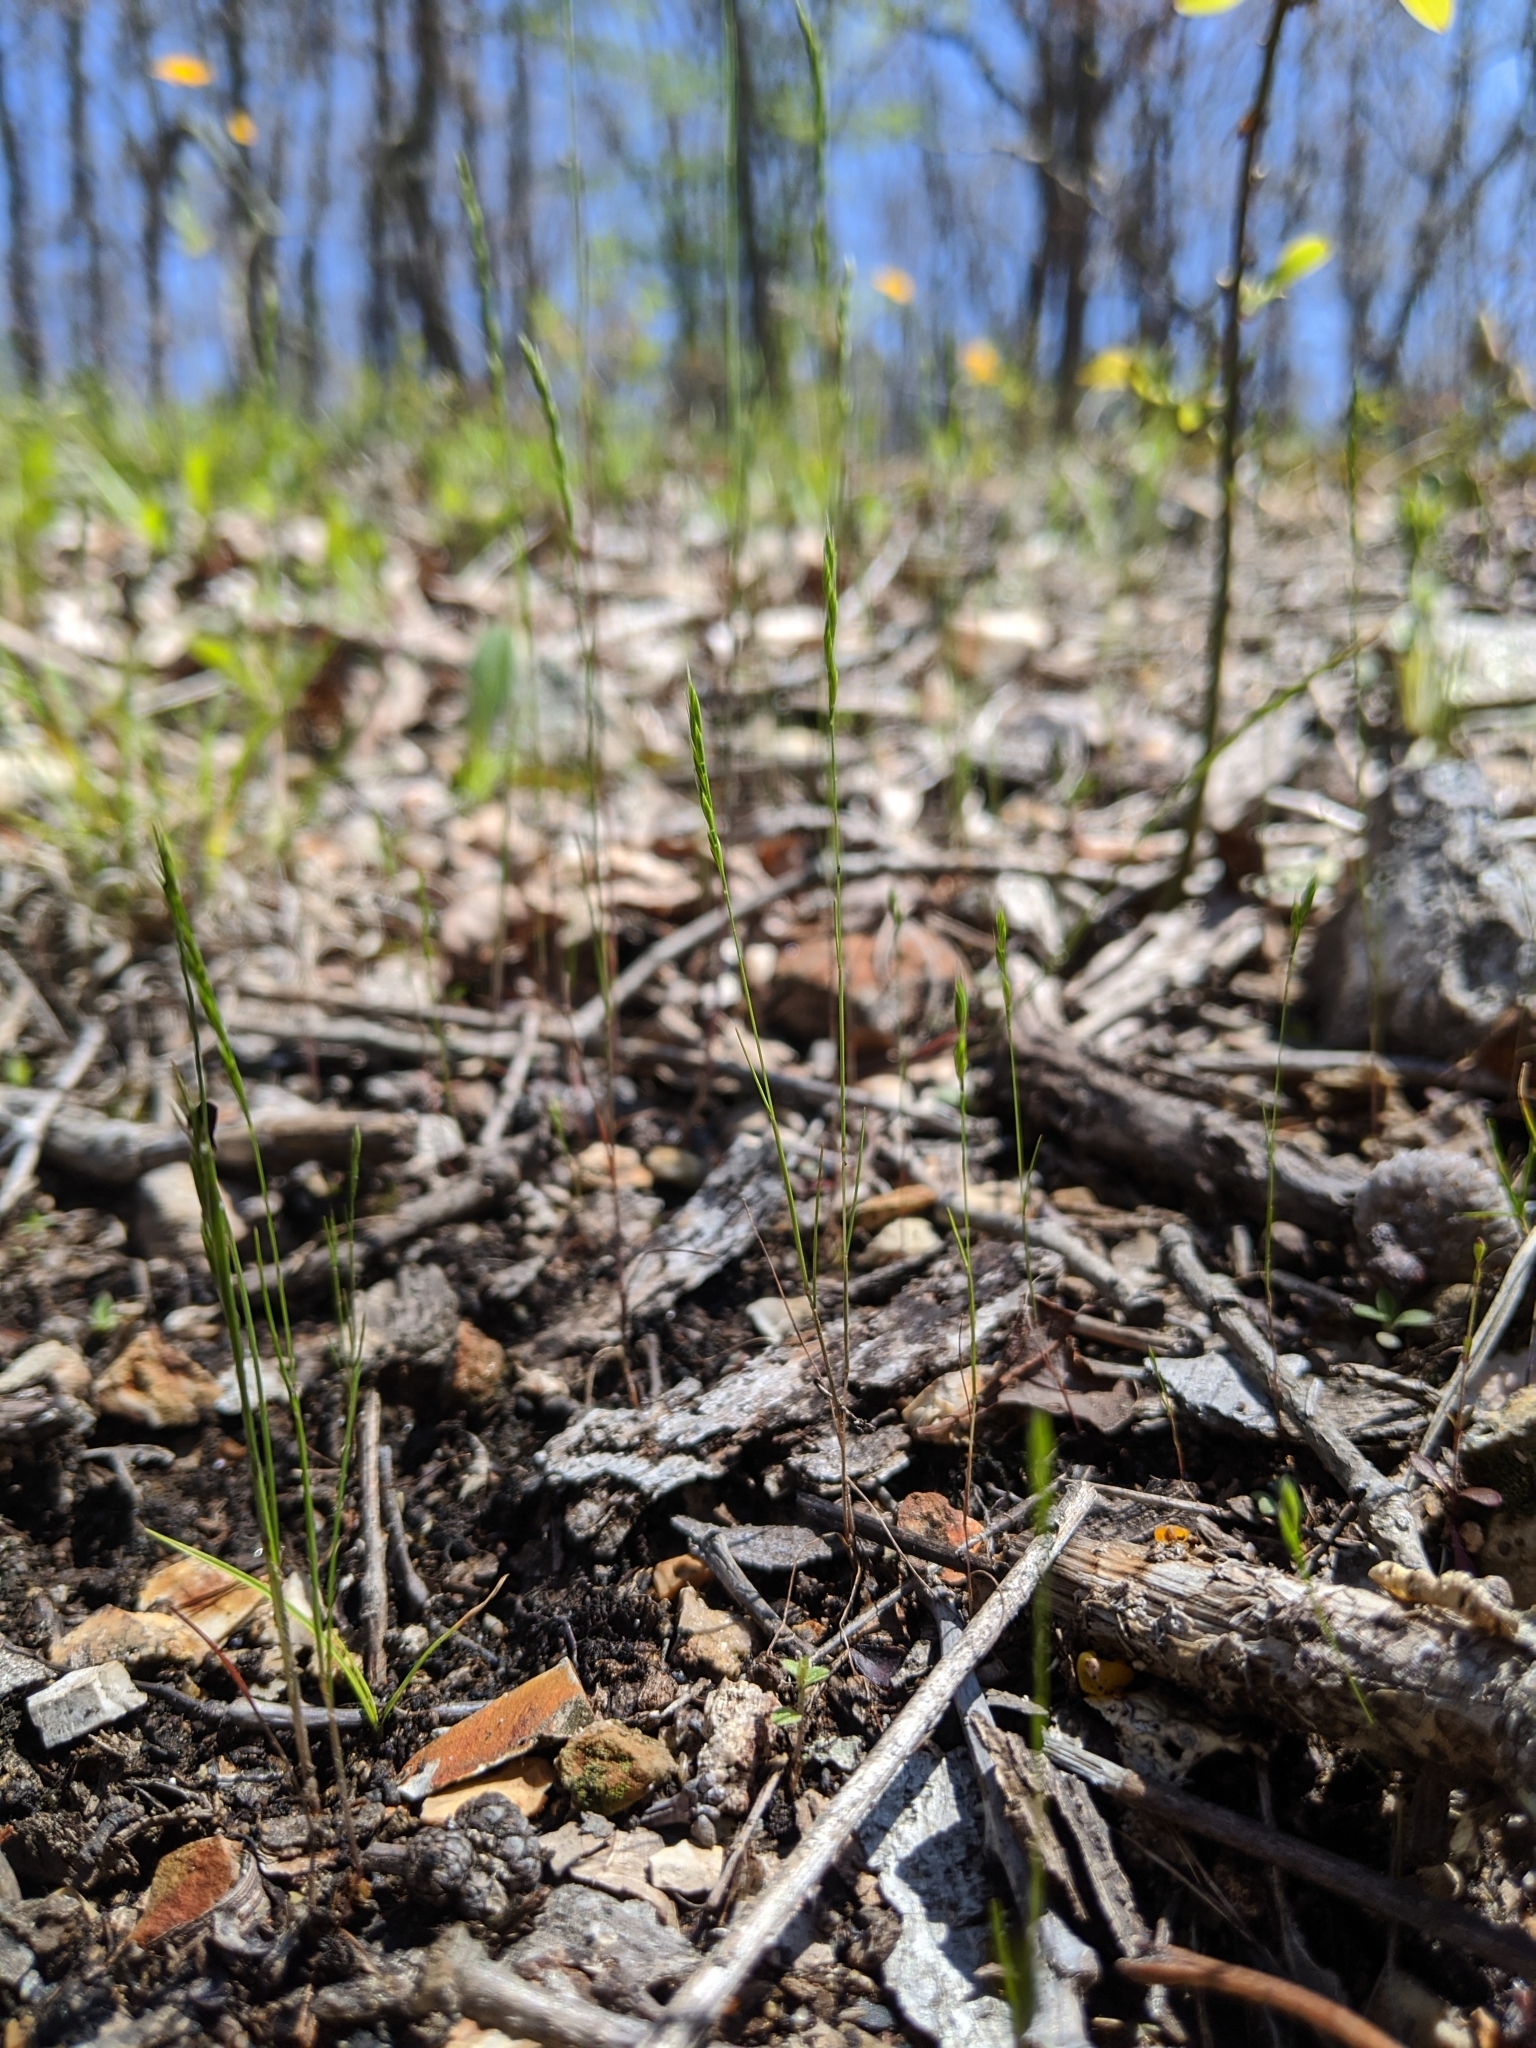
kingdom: Plantae
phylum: Tracheophyta
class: Liliopsida
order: Poales
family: Poaceae
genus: Festuca
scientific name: Festuca octoflora
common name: Sixweeks grass
